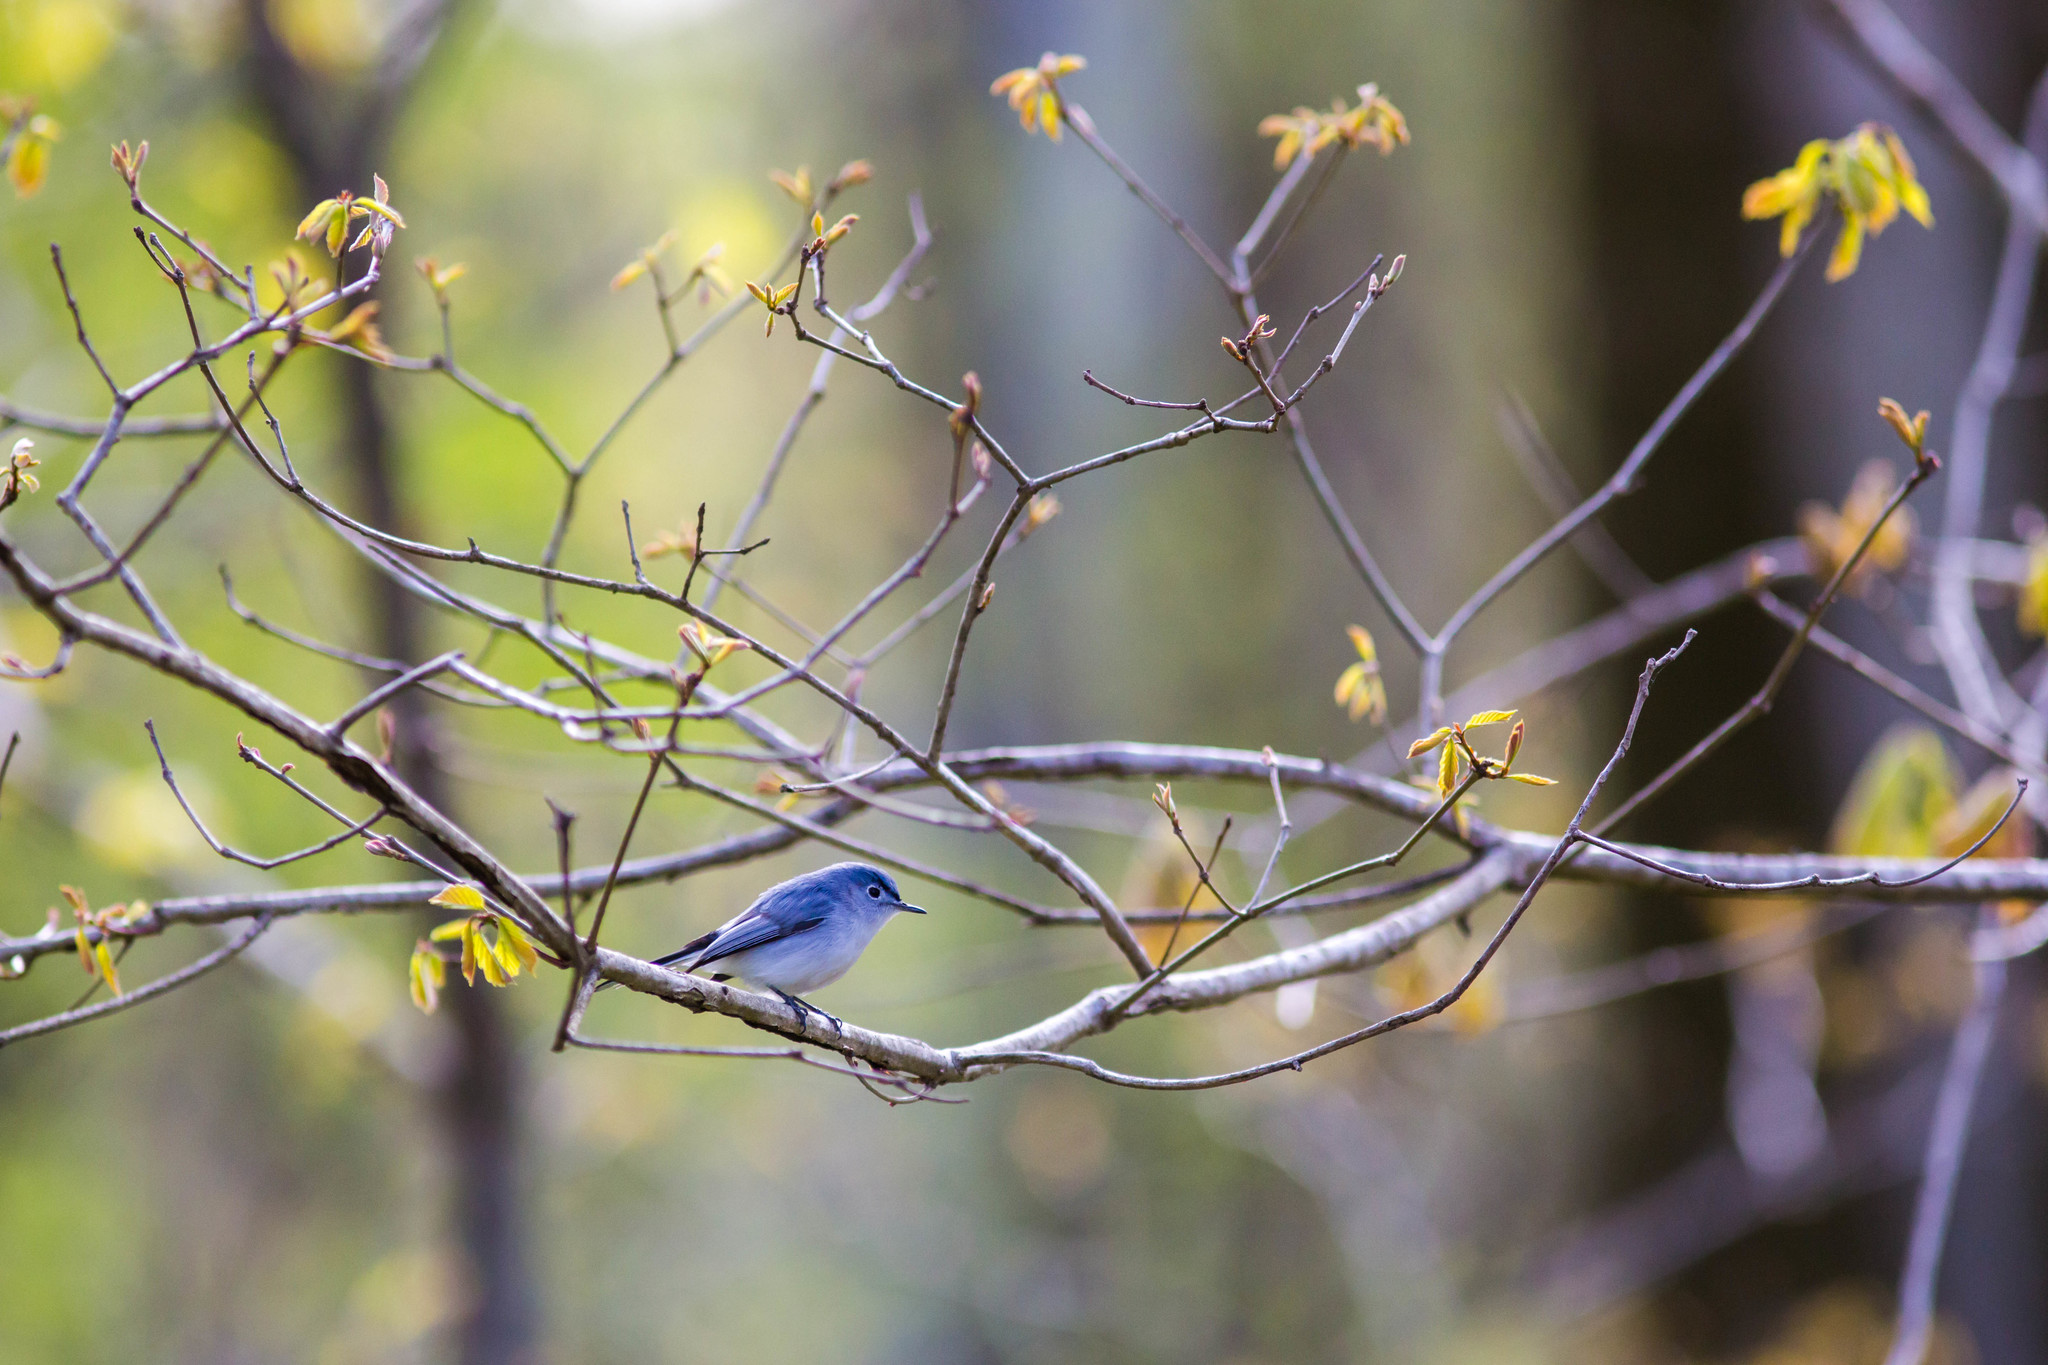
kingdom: Animalia
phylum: Chordata
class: Aves
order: Passeriformes
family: Polioptilidae
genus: Polioptila
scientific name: Polioptila caerulea
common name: Blue-gray gnatcatcher
